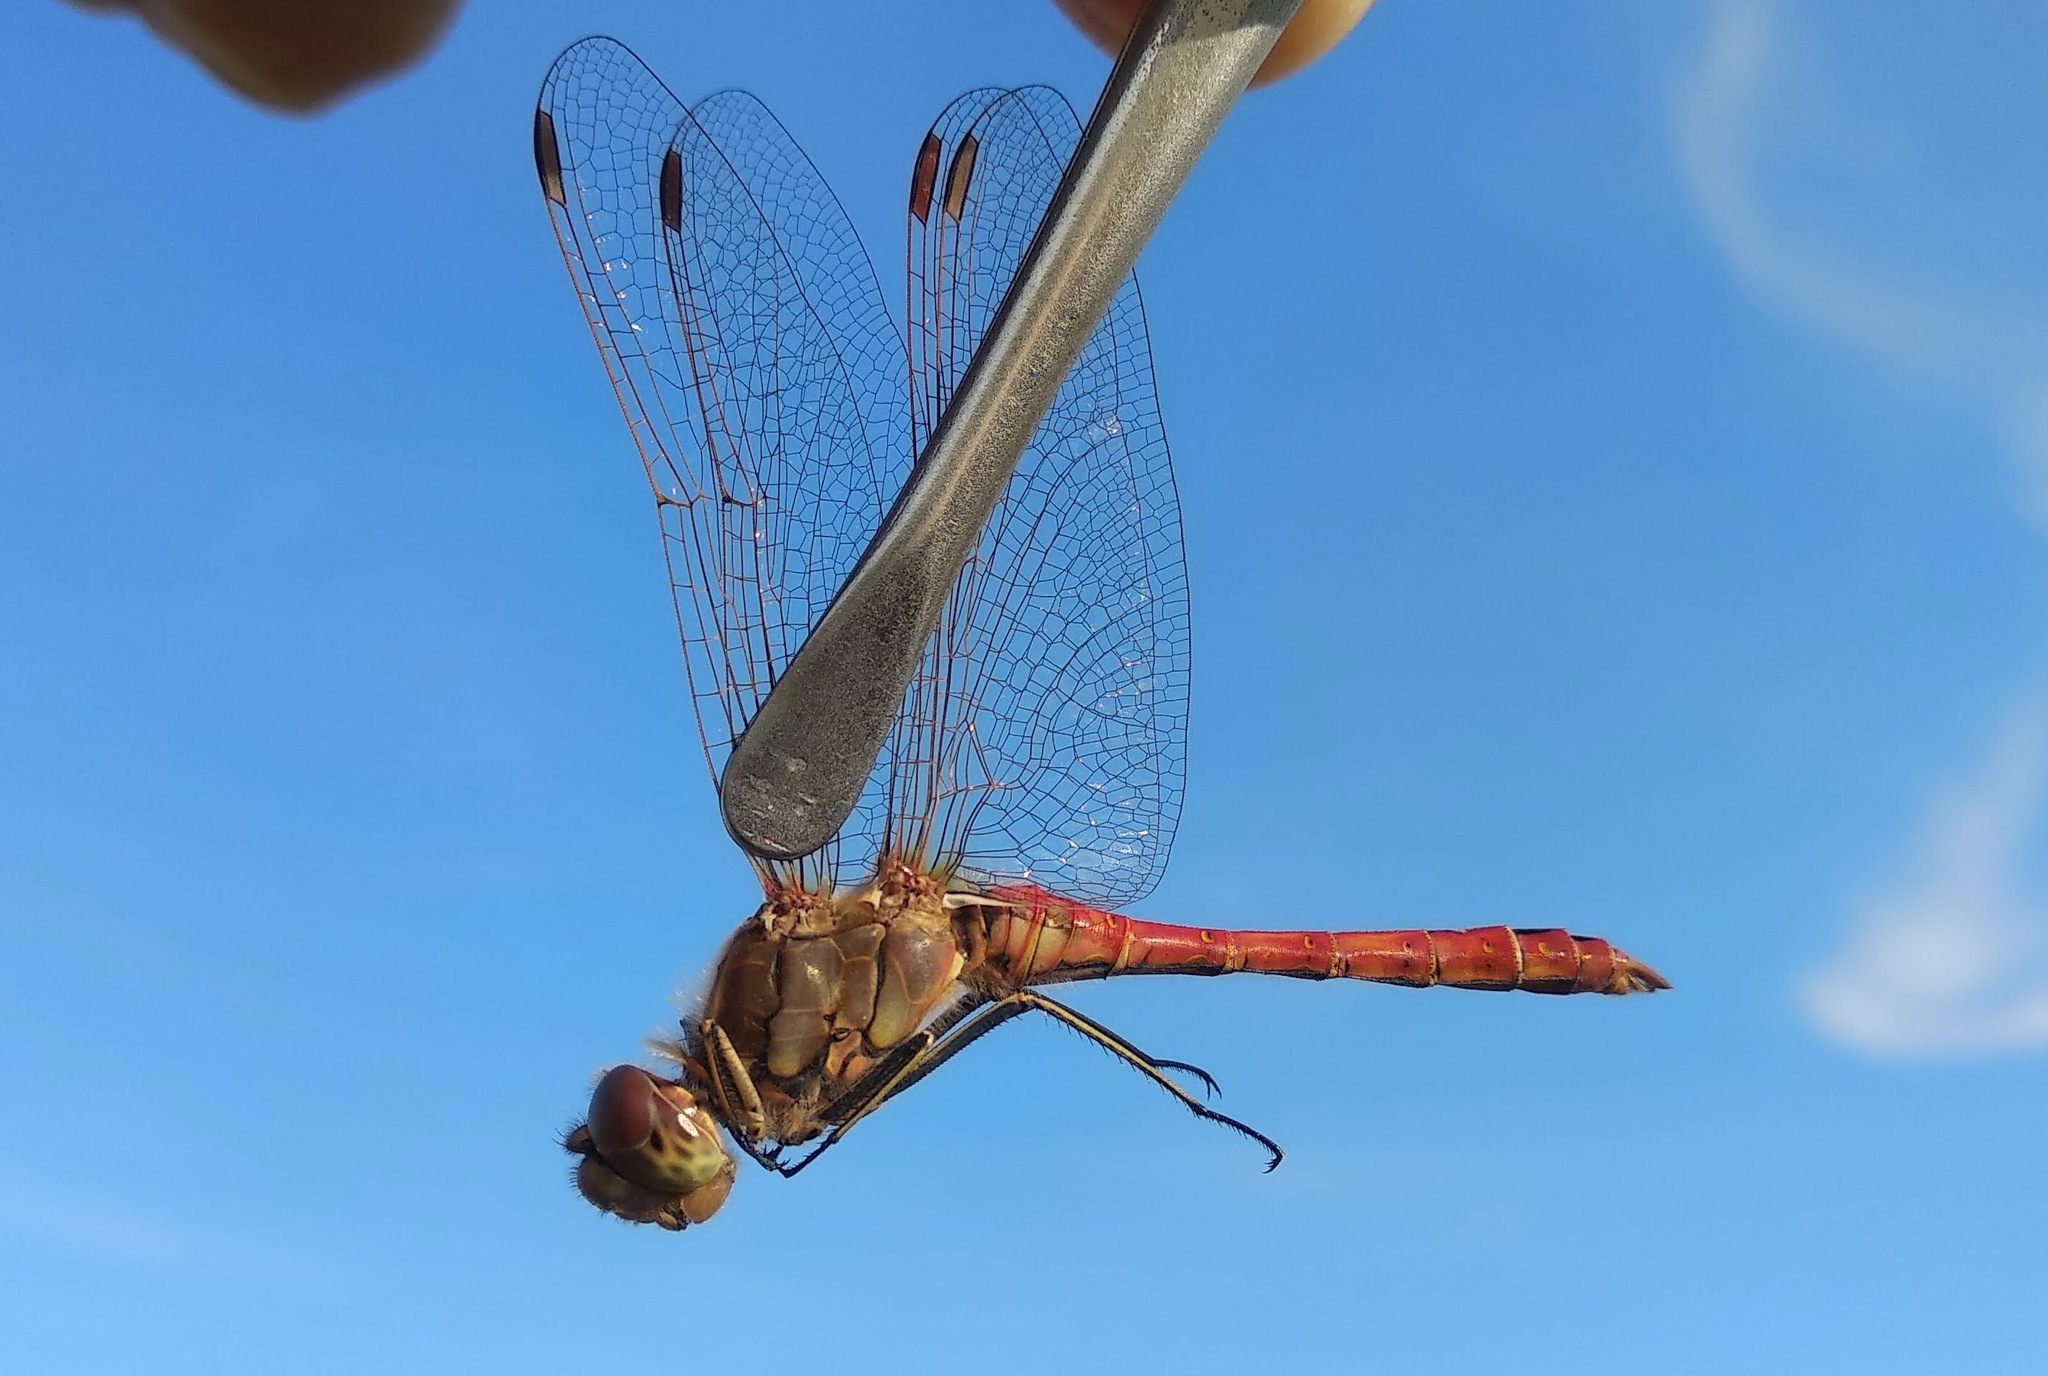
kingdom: Animalia
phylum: Arthropoda
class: Insecta
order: Odonata
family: Libellulidae
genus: Sympetrum
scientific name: Sympetrum vulgatum
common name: Vagrant darter
